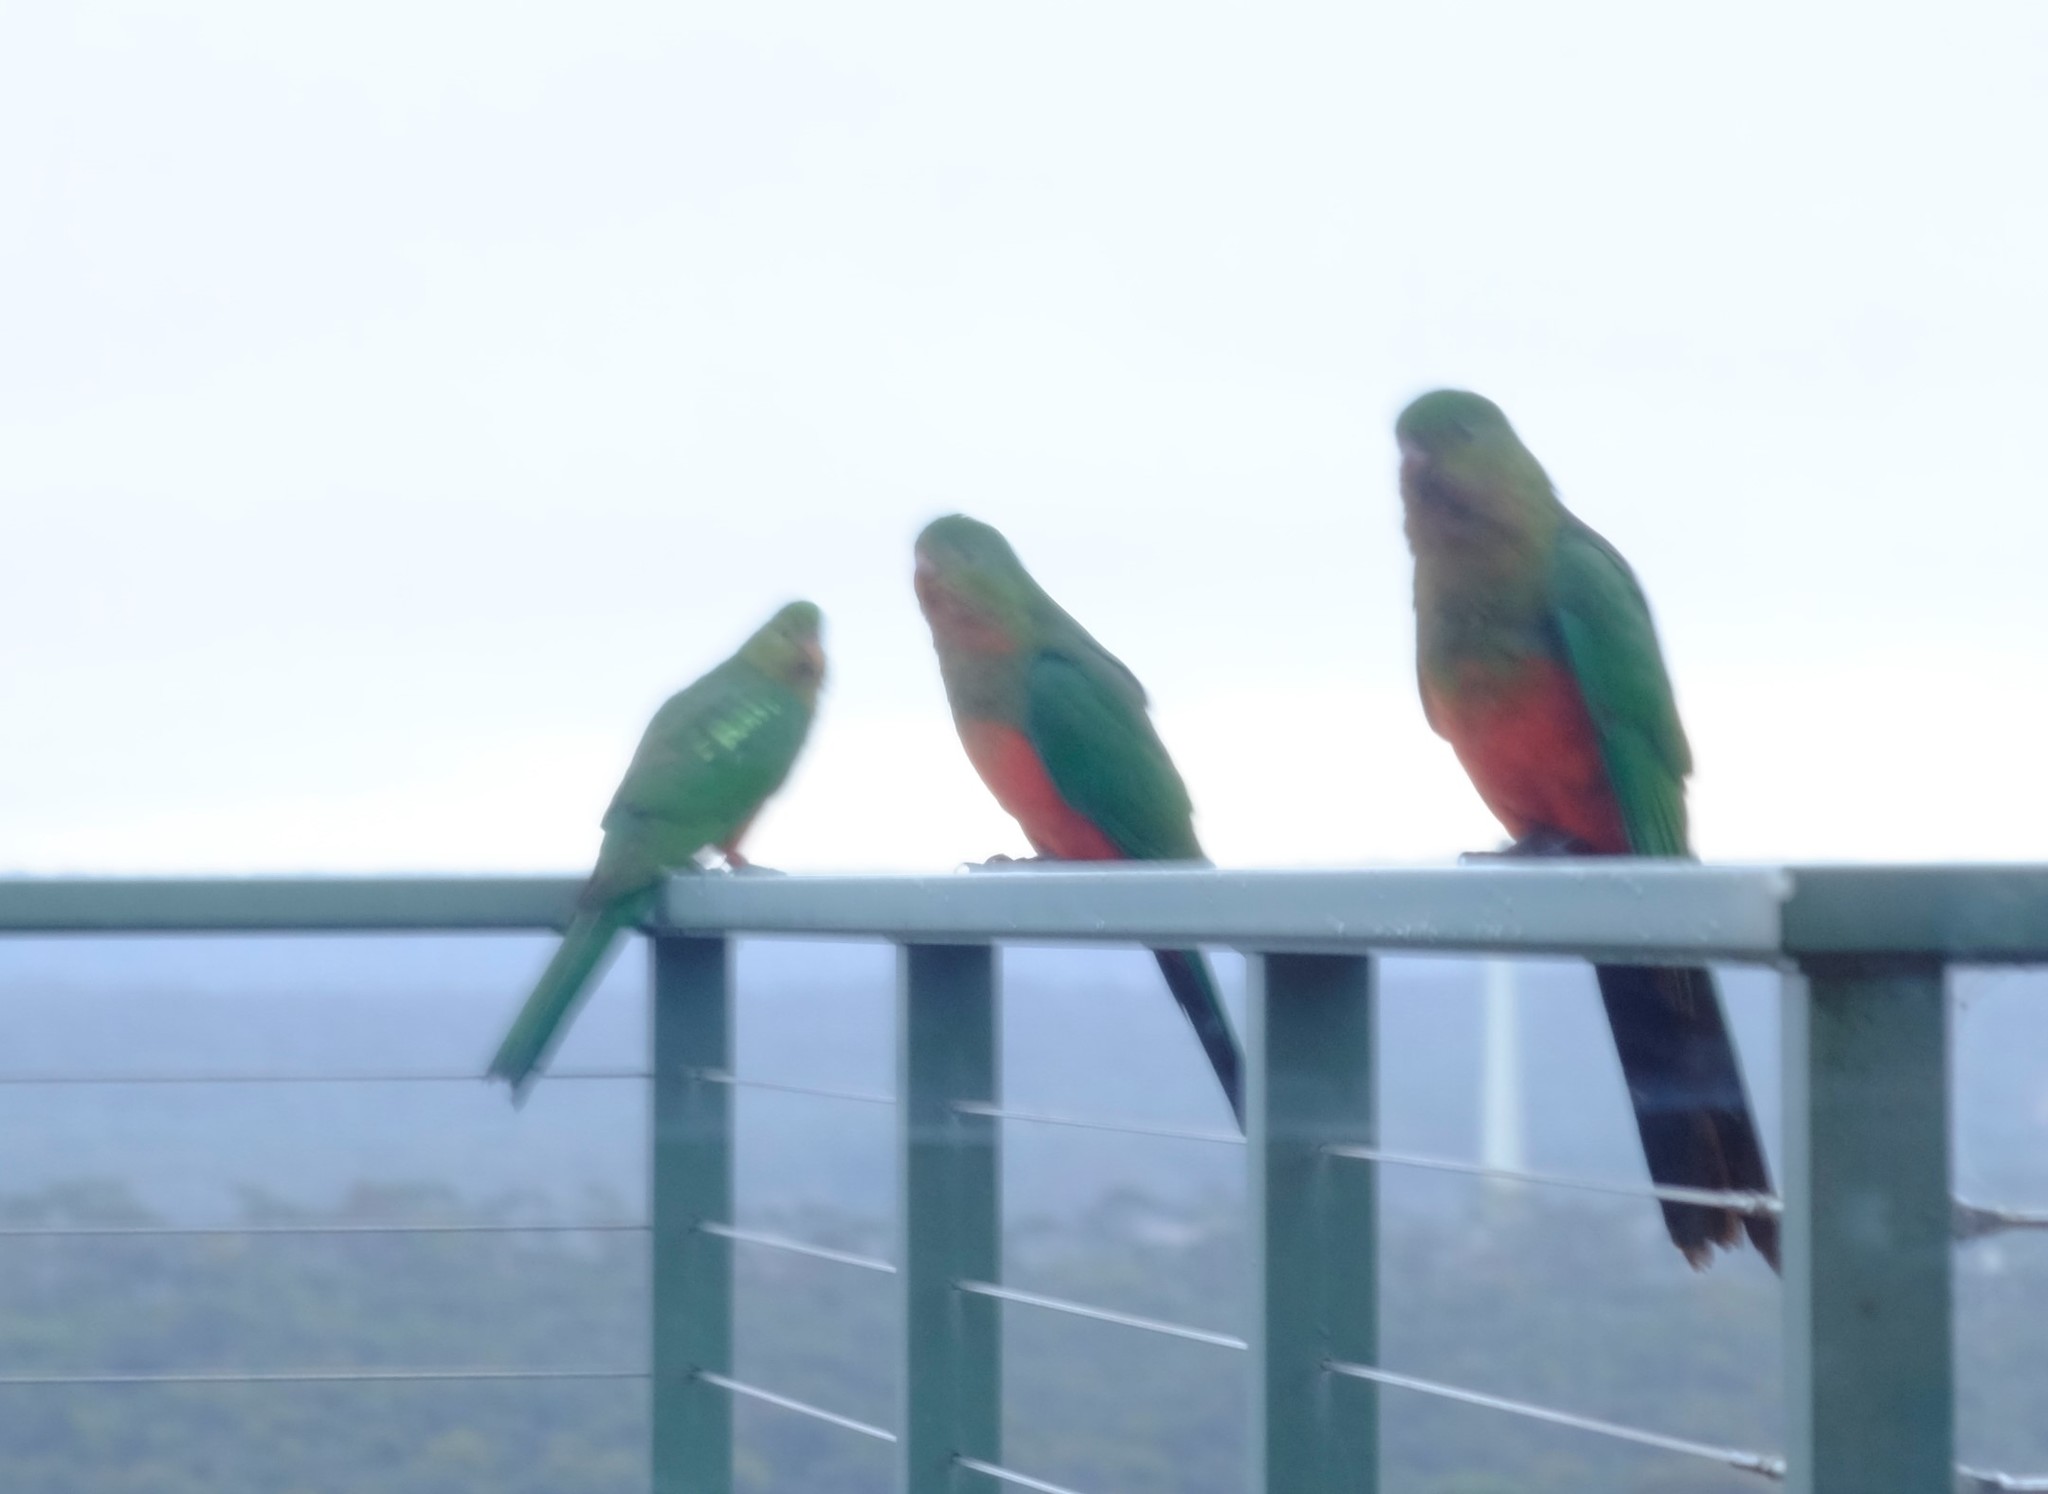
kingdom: Animalia
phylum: Chordata
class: Aves
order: Psittaciformes
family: Psittacidae
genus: Alisterus
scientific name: Alisterus scapularis
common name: Australian king parrot
